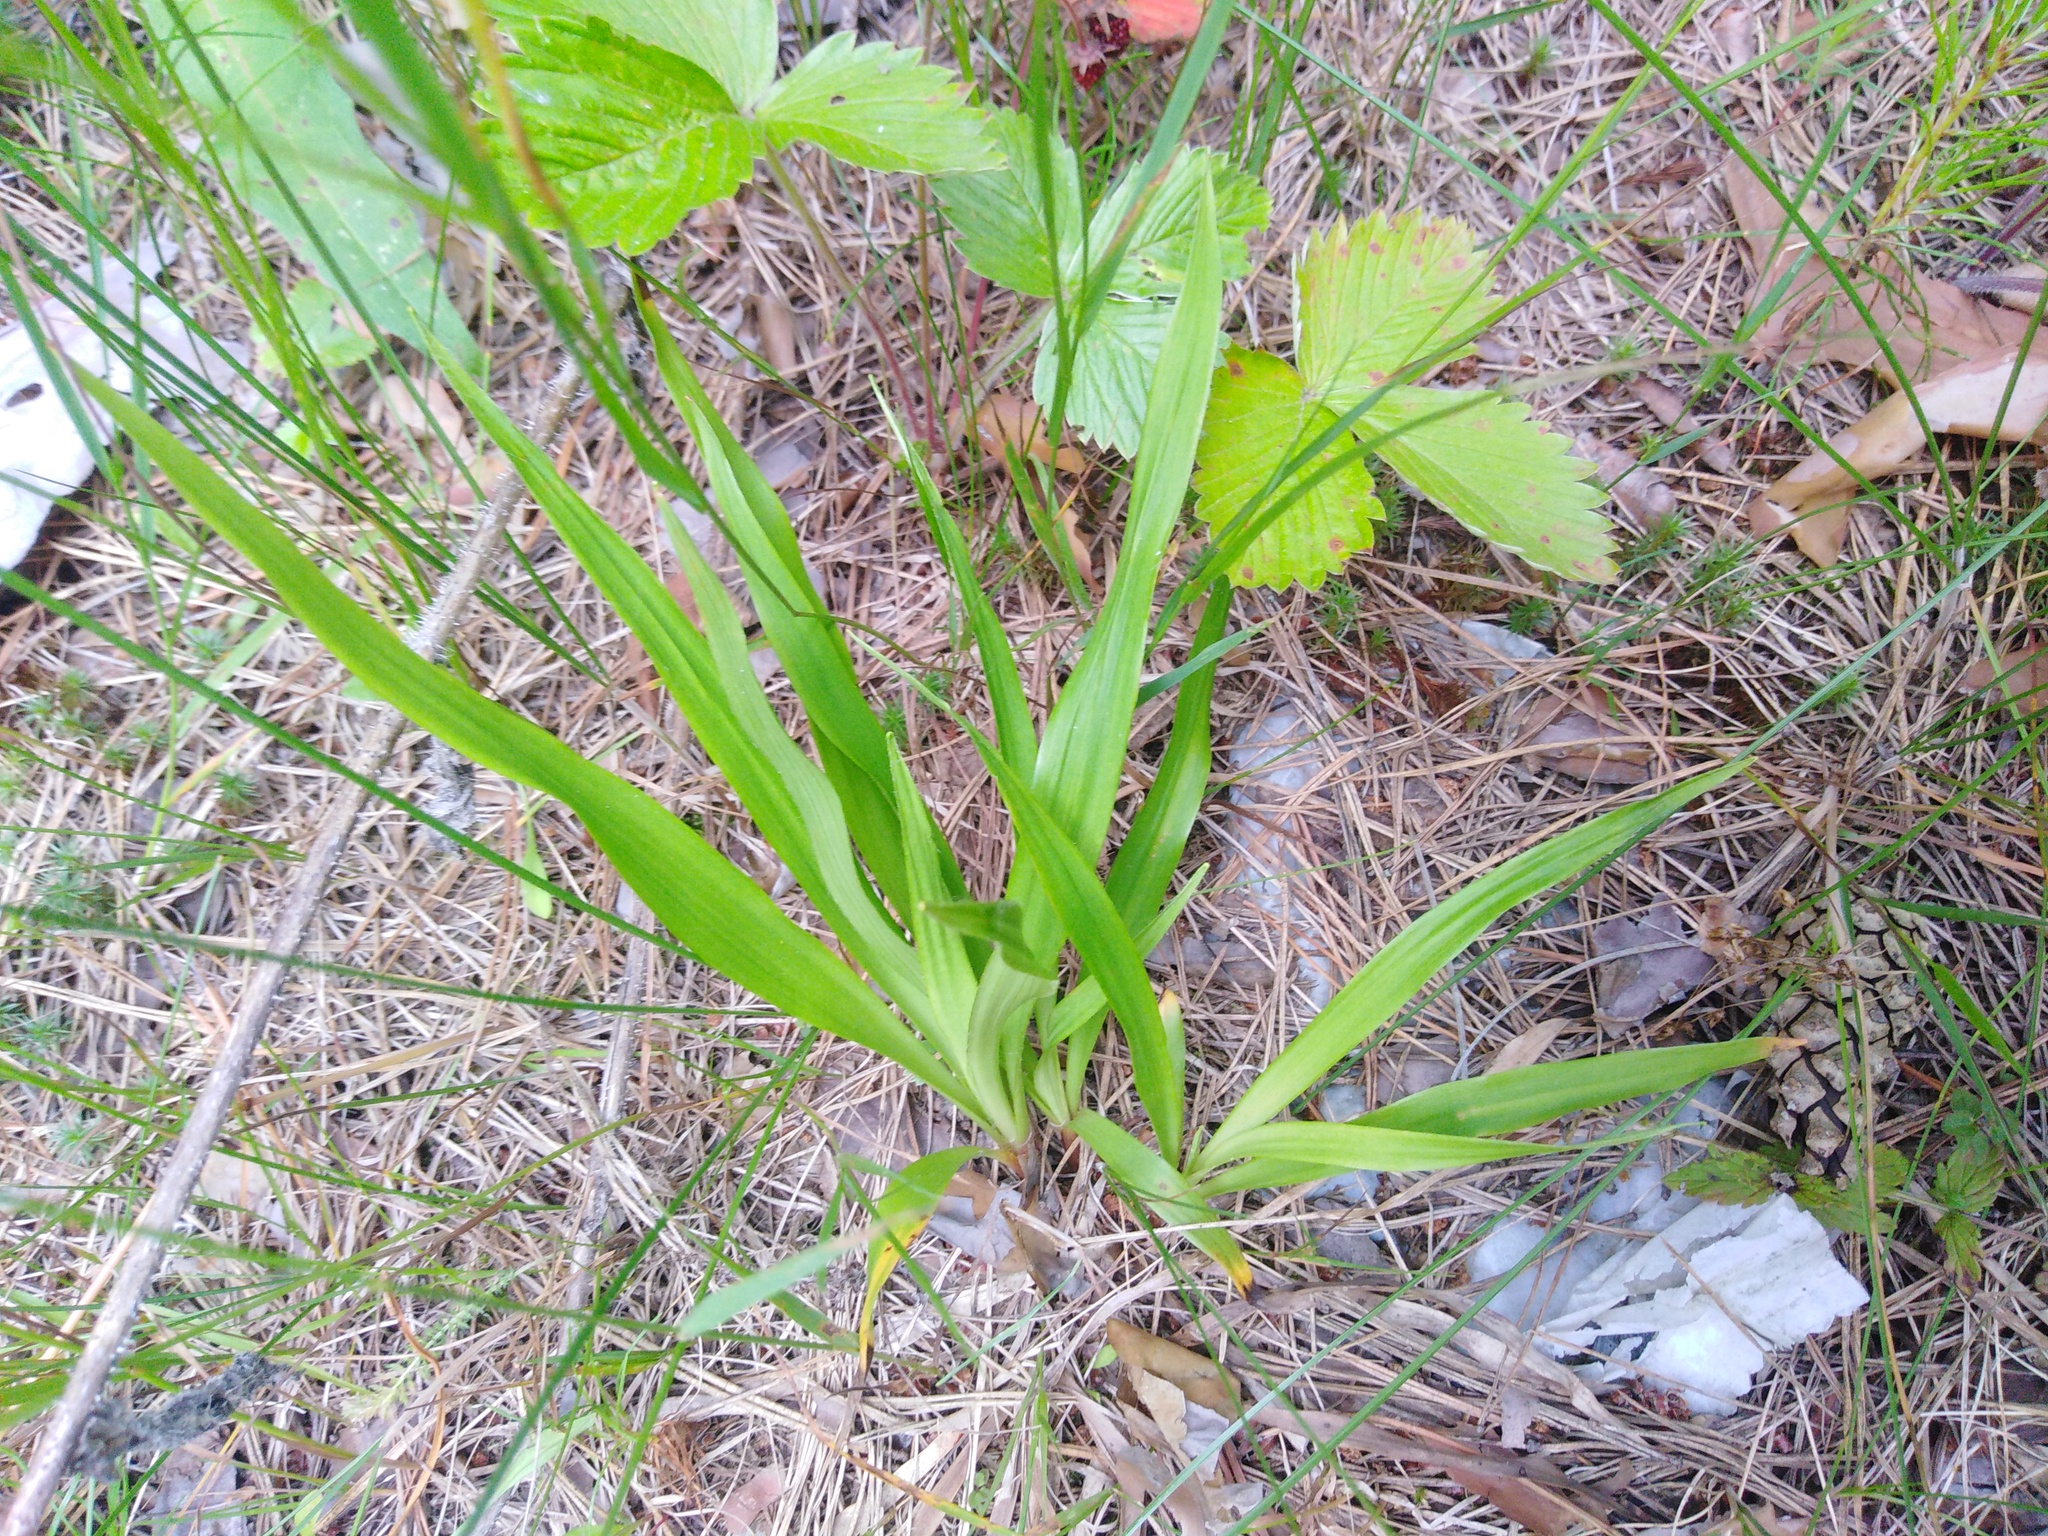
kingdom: Plantae
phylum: Tracheophyta
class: Liliopsida
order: Poales
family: Juncaceae
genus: Luzula
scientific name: Luzula pilosa
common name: Hairy wood-rush
